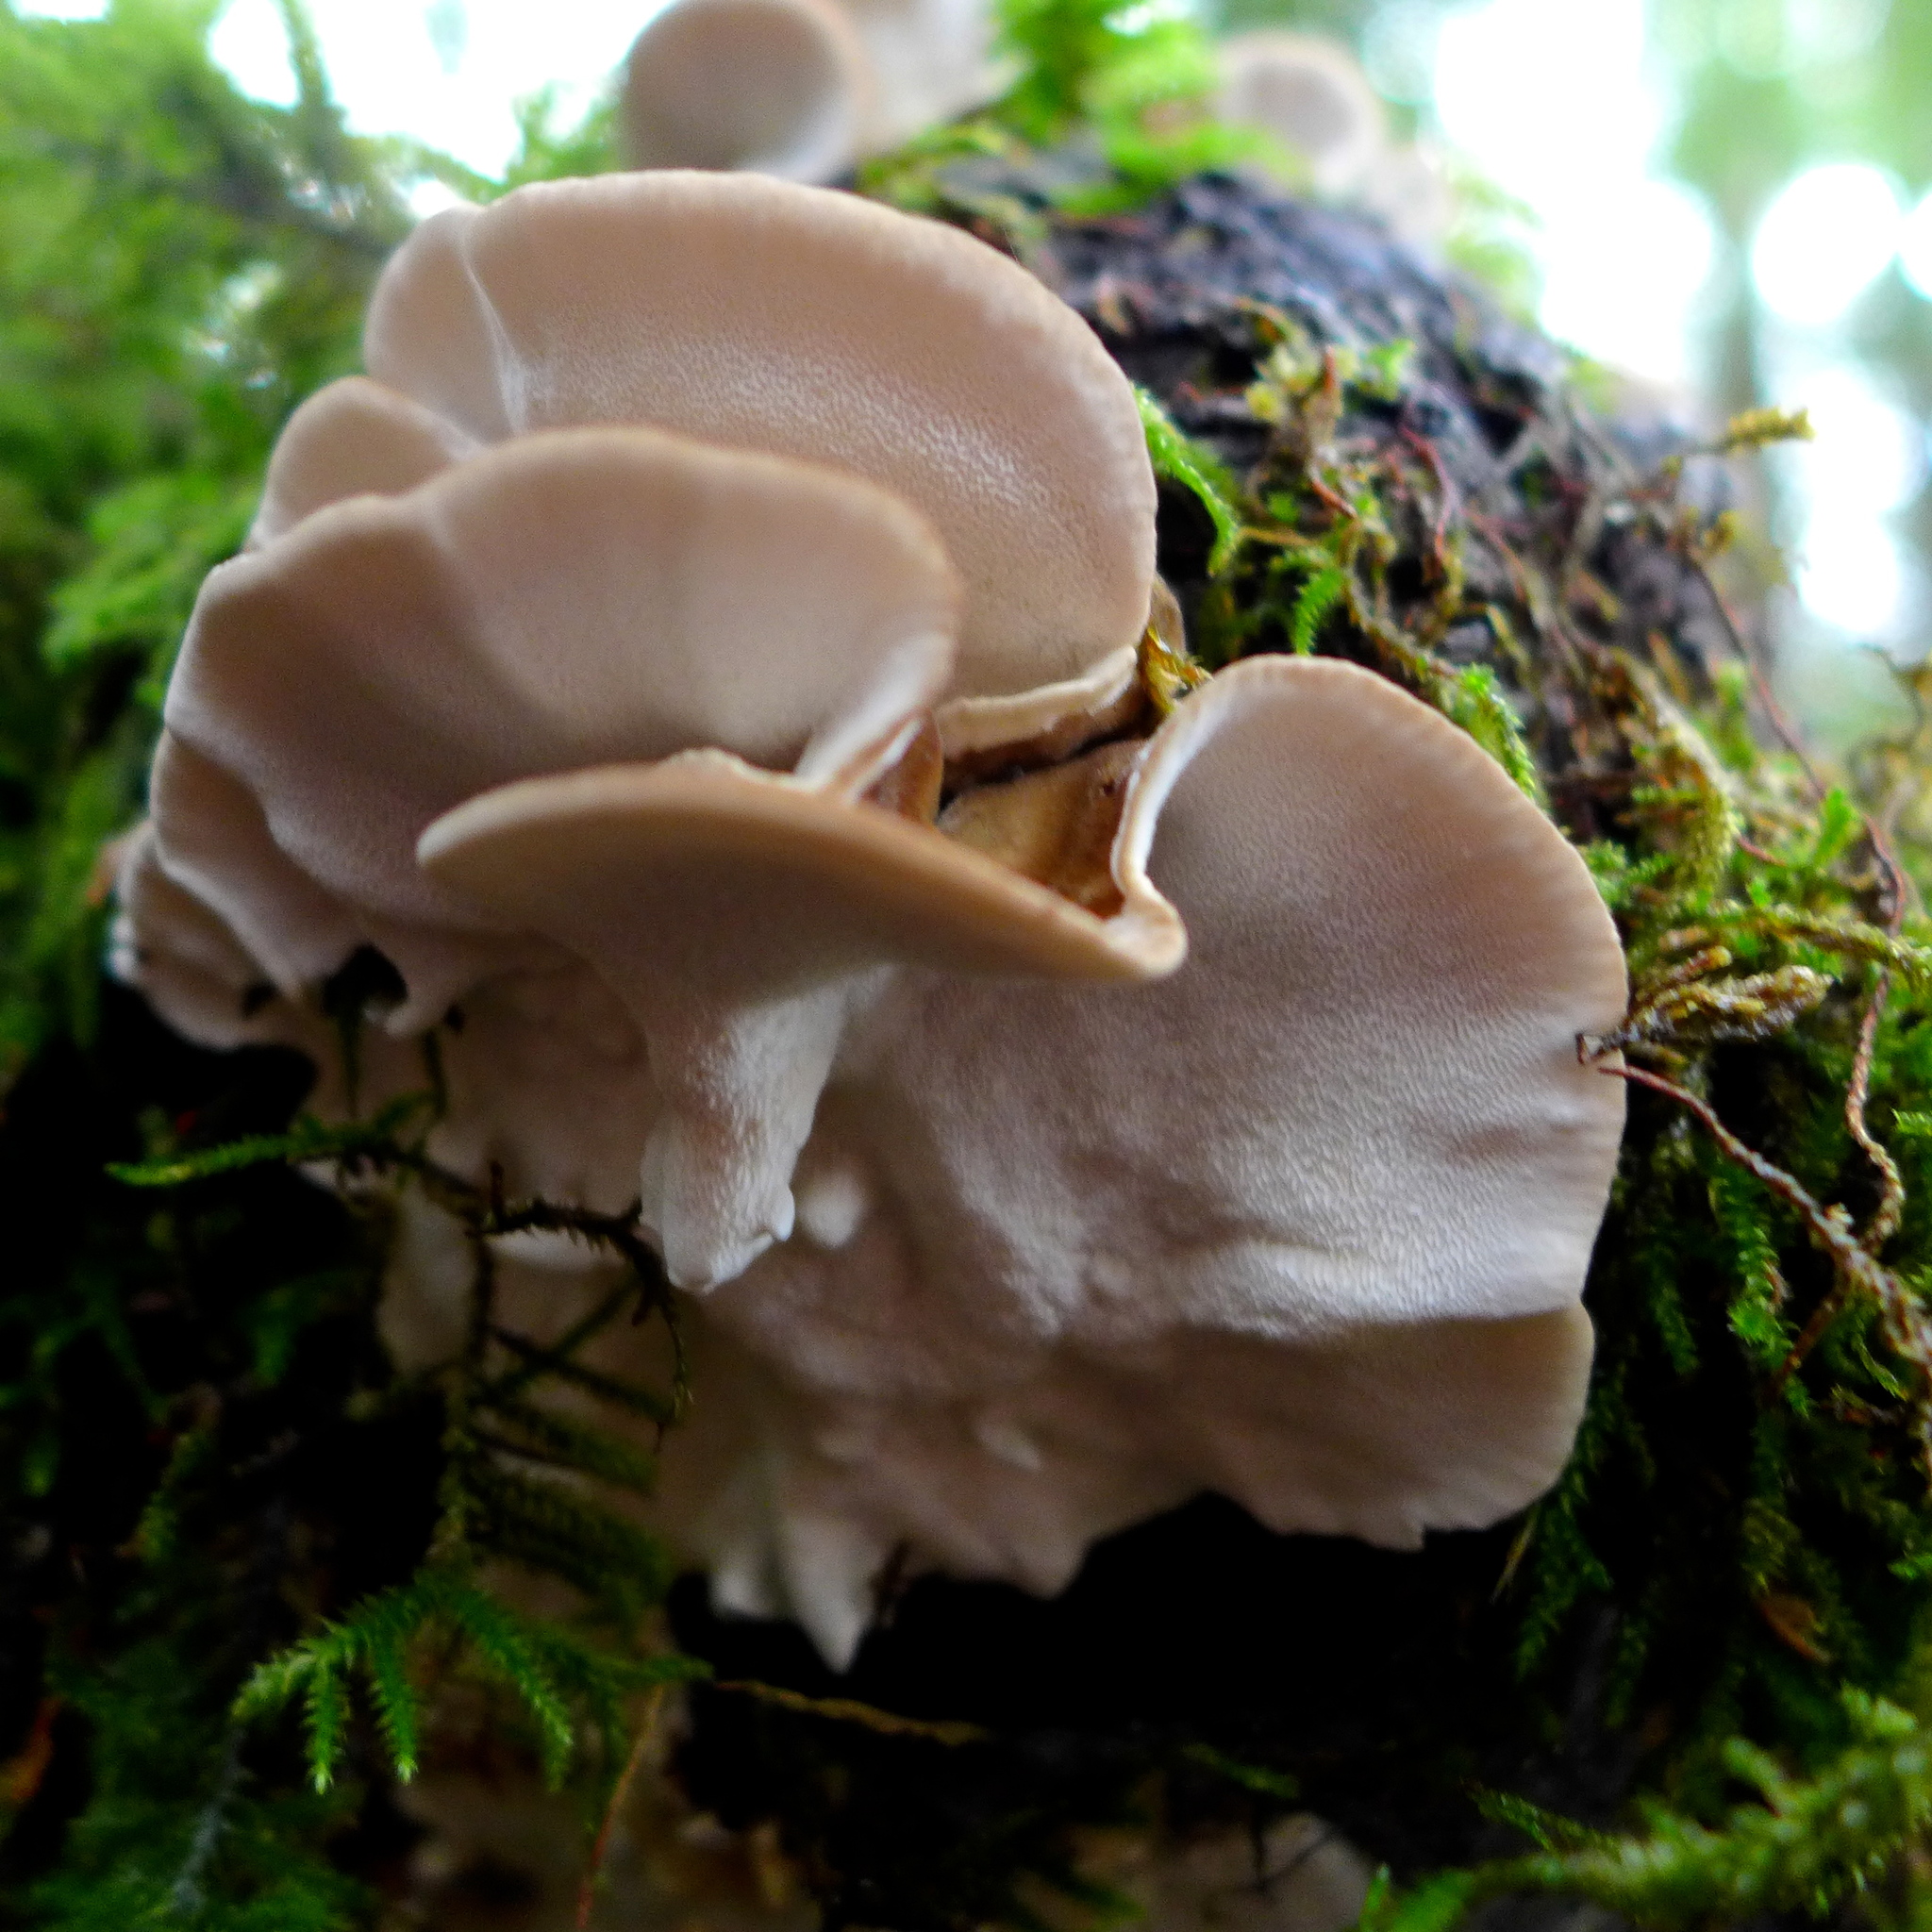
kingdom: Fungi
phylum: Basidiomycota
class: Agaricomycetes
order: Polyporales
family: Polyporaceae
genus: Trametes
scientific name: Trametes versicolor
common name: Turkeytail
